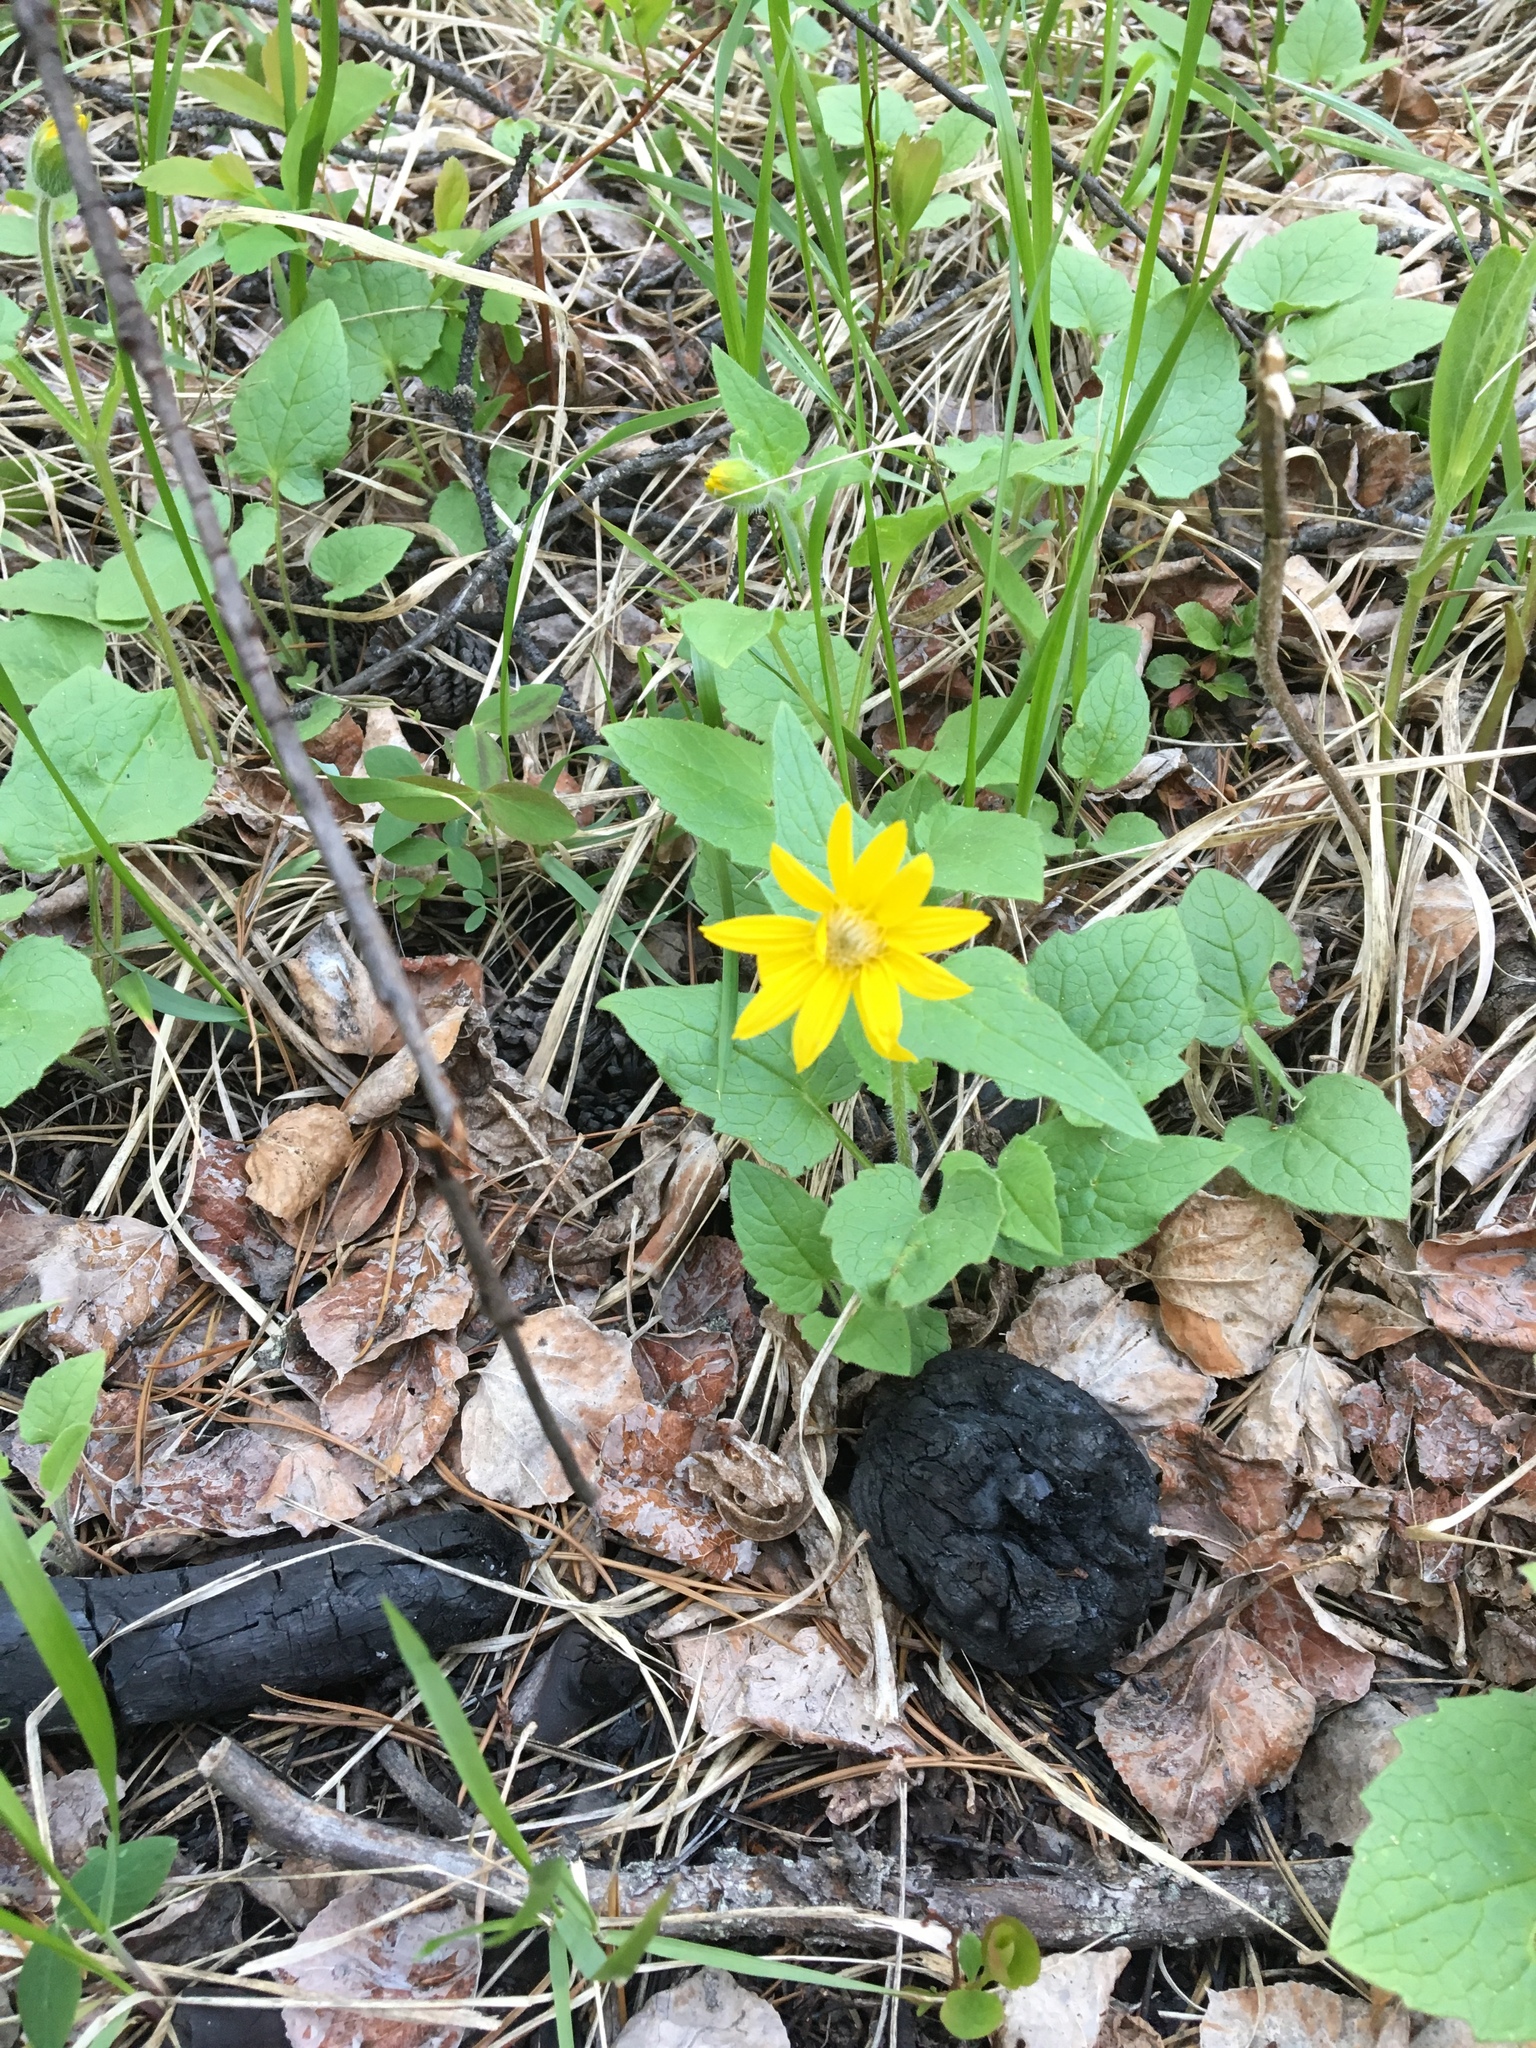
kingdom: Plantae
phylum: Tracheophyta
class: Magnoliopsida
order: Asterales
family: Asteraceae
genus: Arnica
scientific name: Arnica cordifolia
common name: Heart-leaf arnica
